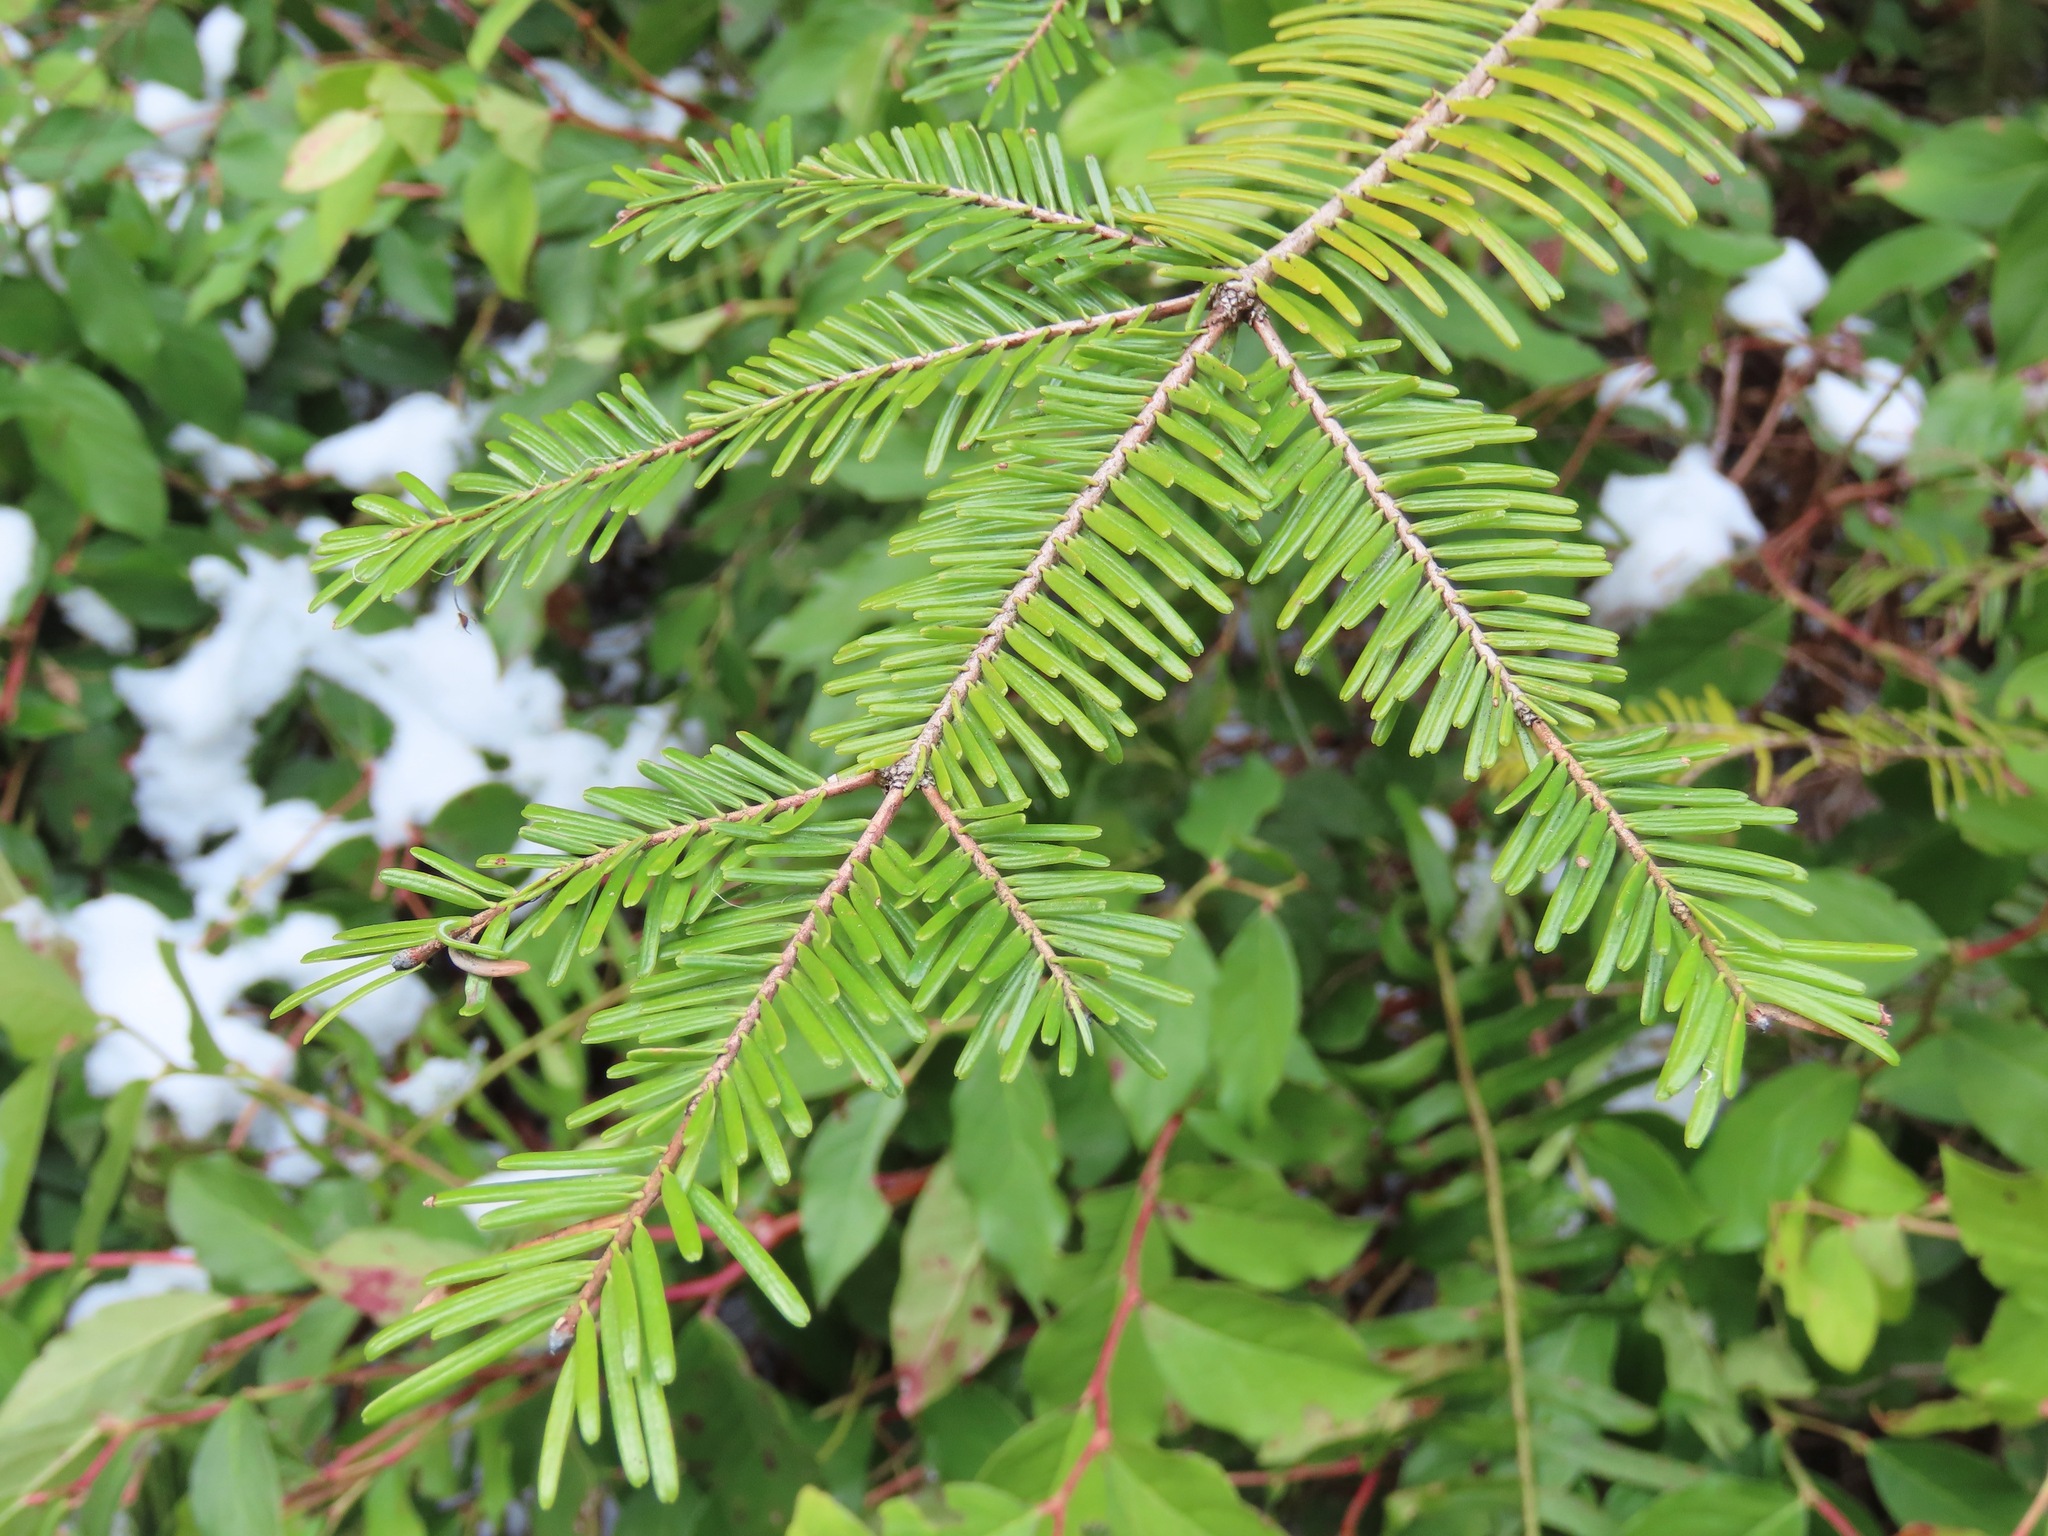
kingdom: Plantae
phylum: Tracheophyta
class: Pinopsida
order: Pinales
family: Pinaceae
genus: Abies
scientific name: Abies grandis
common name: Giant fir
